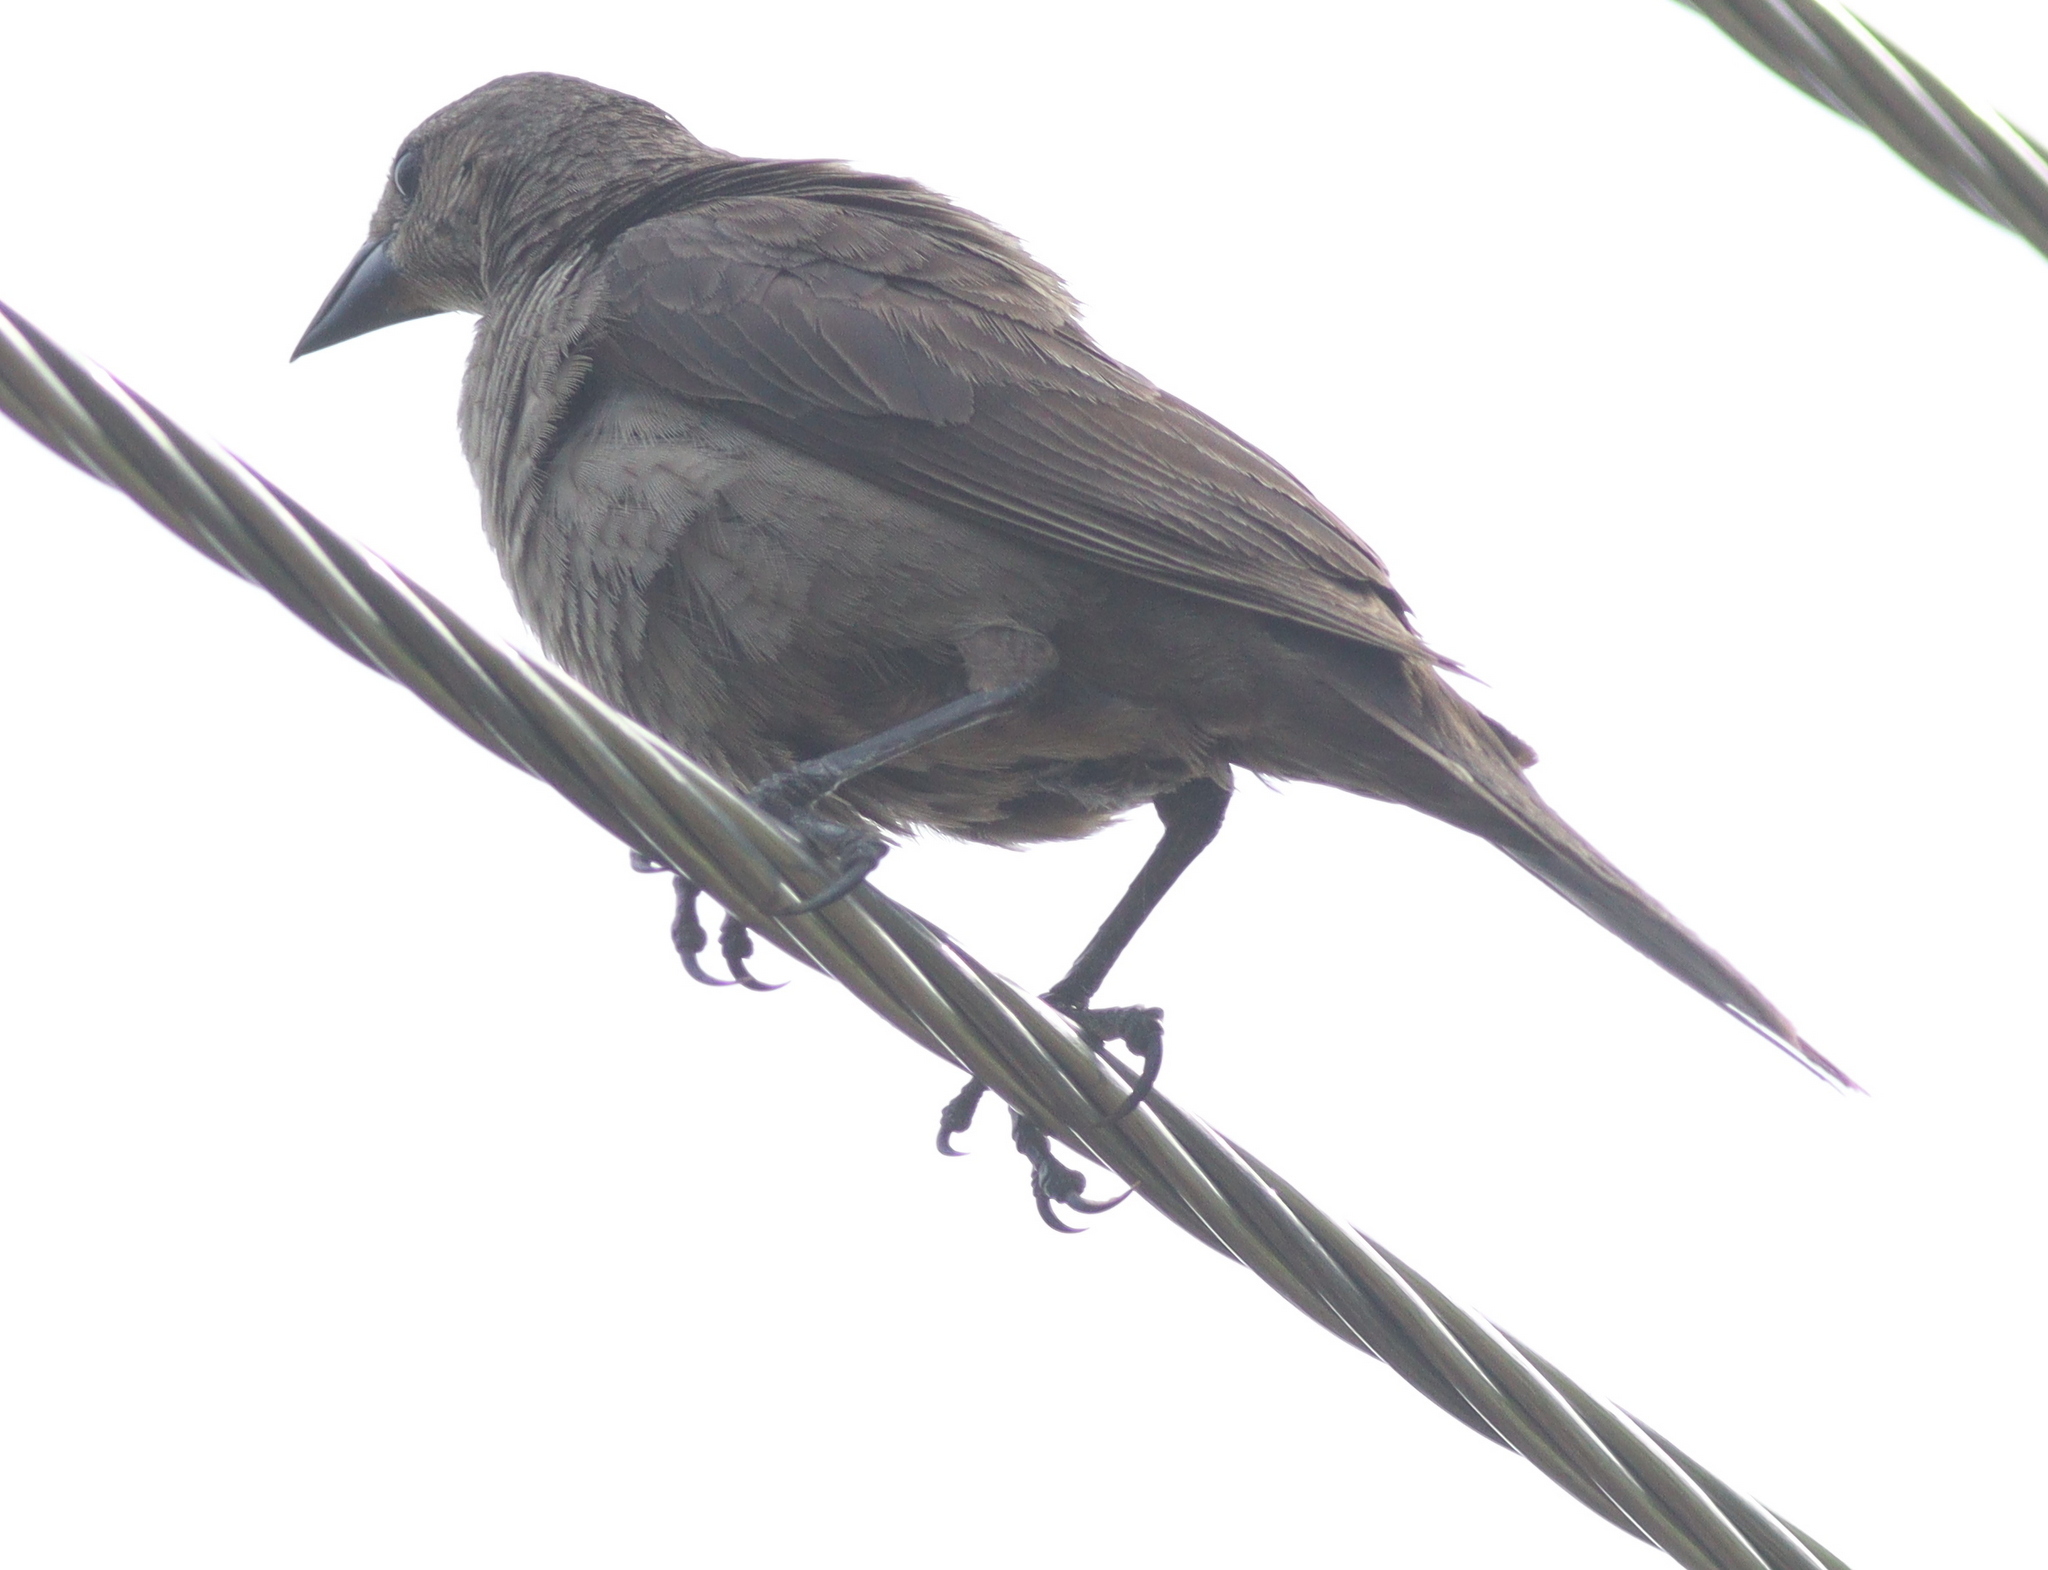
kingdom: Animalia
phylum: Chordata
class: Aves
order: Passeriformes
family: Icteridae
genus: Molothrus
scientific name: Molothrus bonariensis
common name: Shiny cowbird
